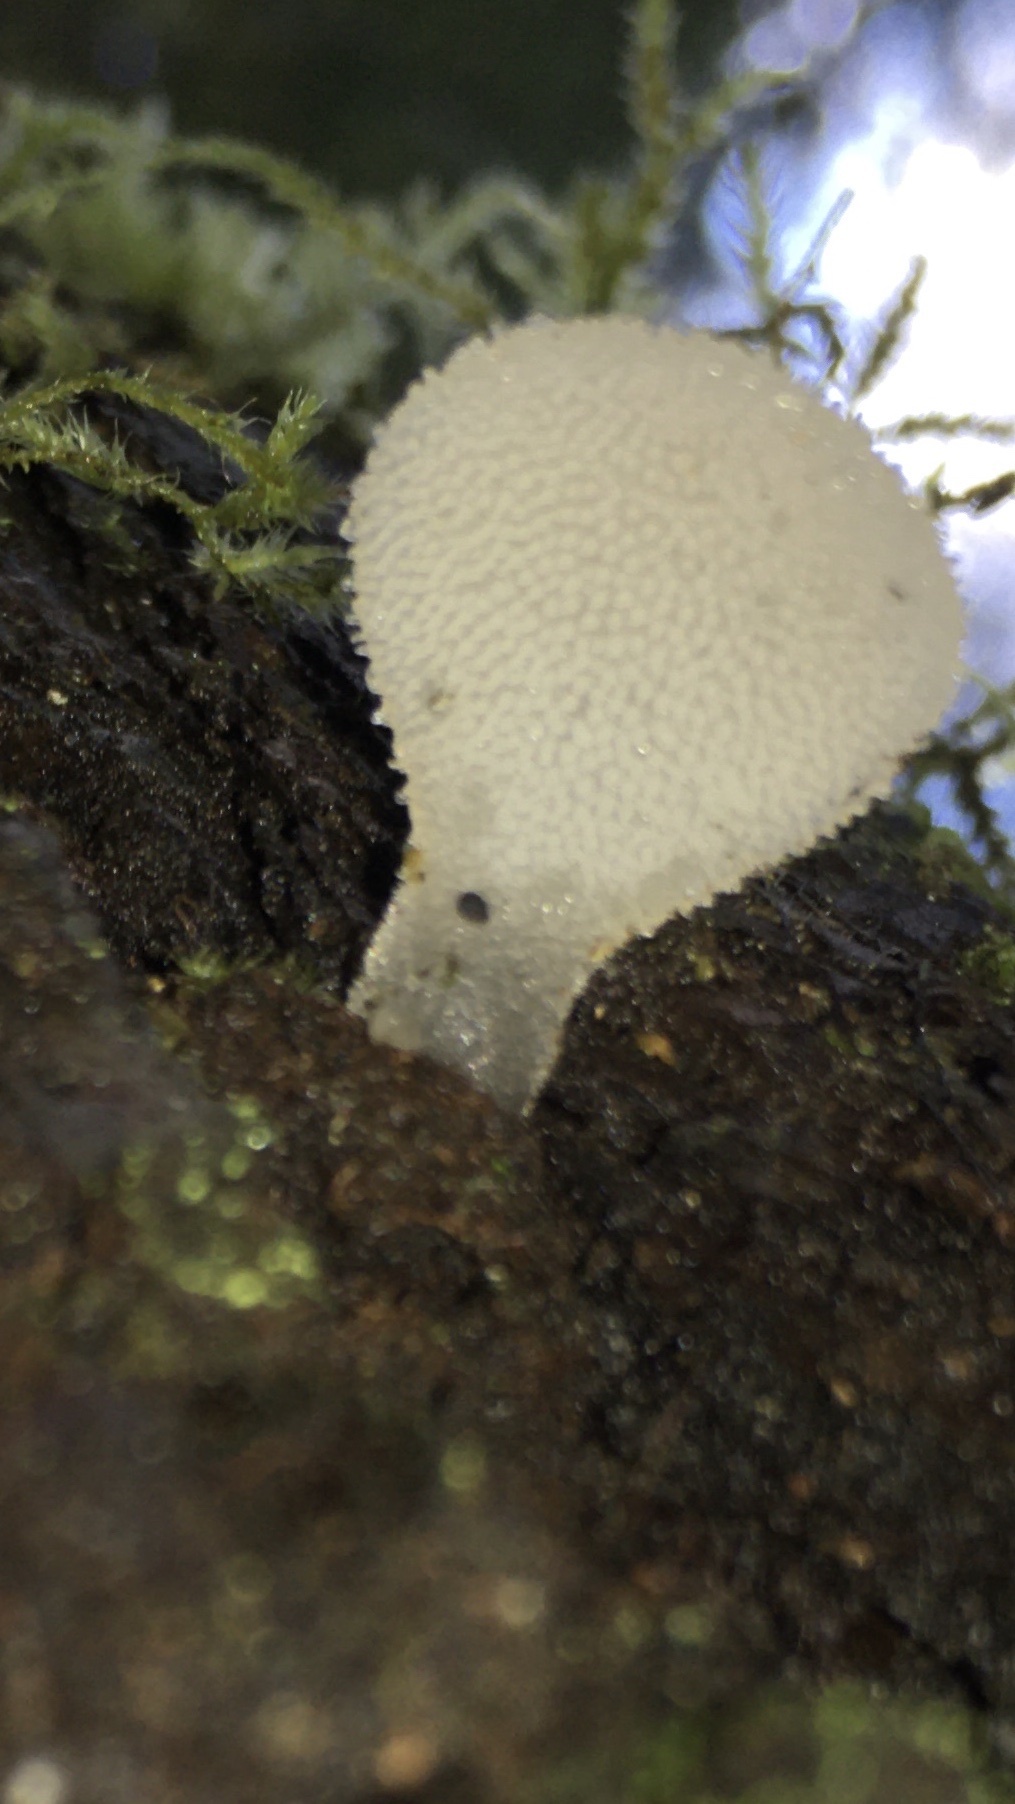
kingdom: Fungi
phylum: Basidiomycota
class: Agaricomycetes
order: Auriculariales
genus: Pseudohydnum
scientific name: Pseudohydnum gelatinosum
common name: Jelly tongue
